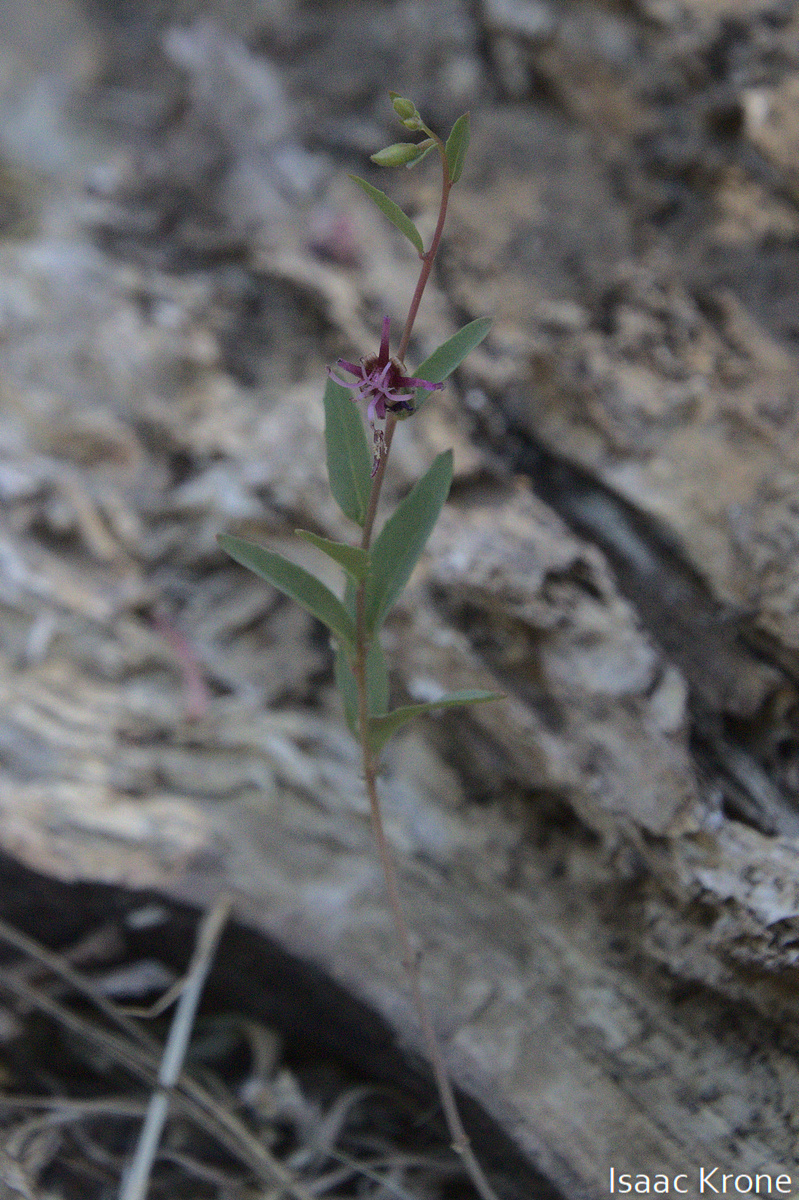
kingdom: Plantae
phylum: Tracheophyta
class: Magnoliopsida
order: Myrtales
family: Onagraceae
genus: Clarkia
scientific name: Clarkia unguiculata
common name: Clarkia
